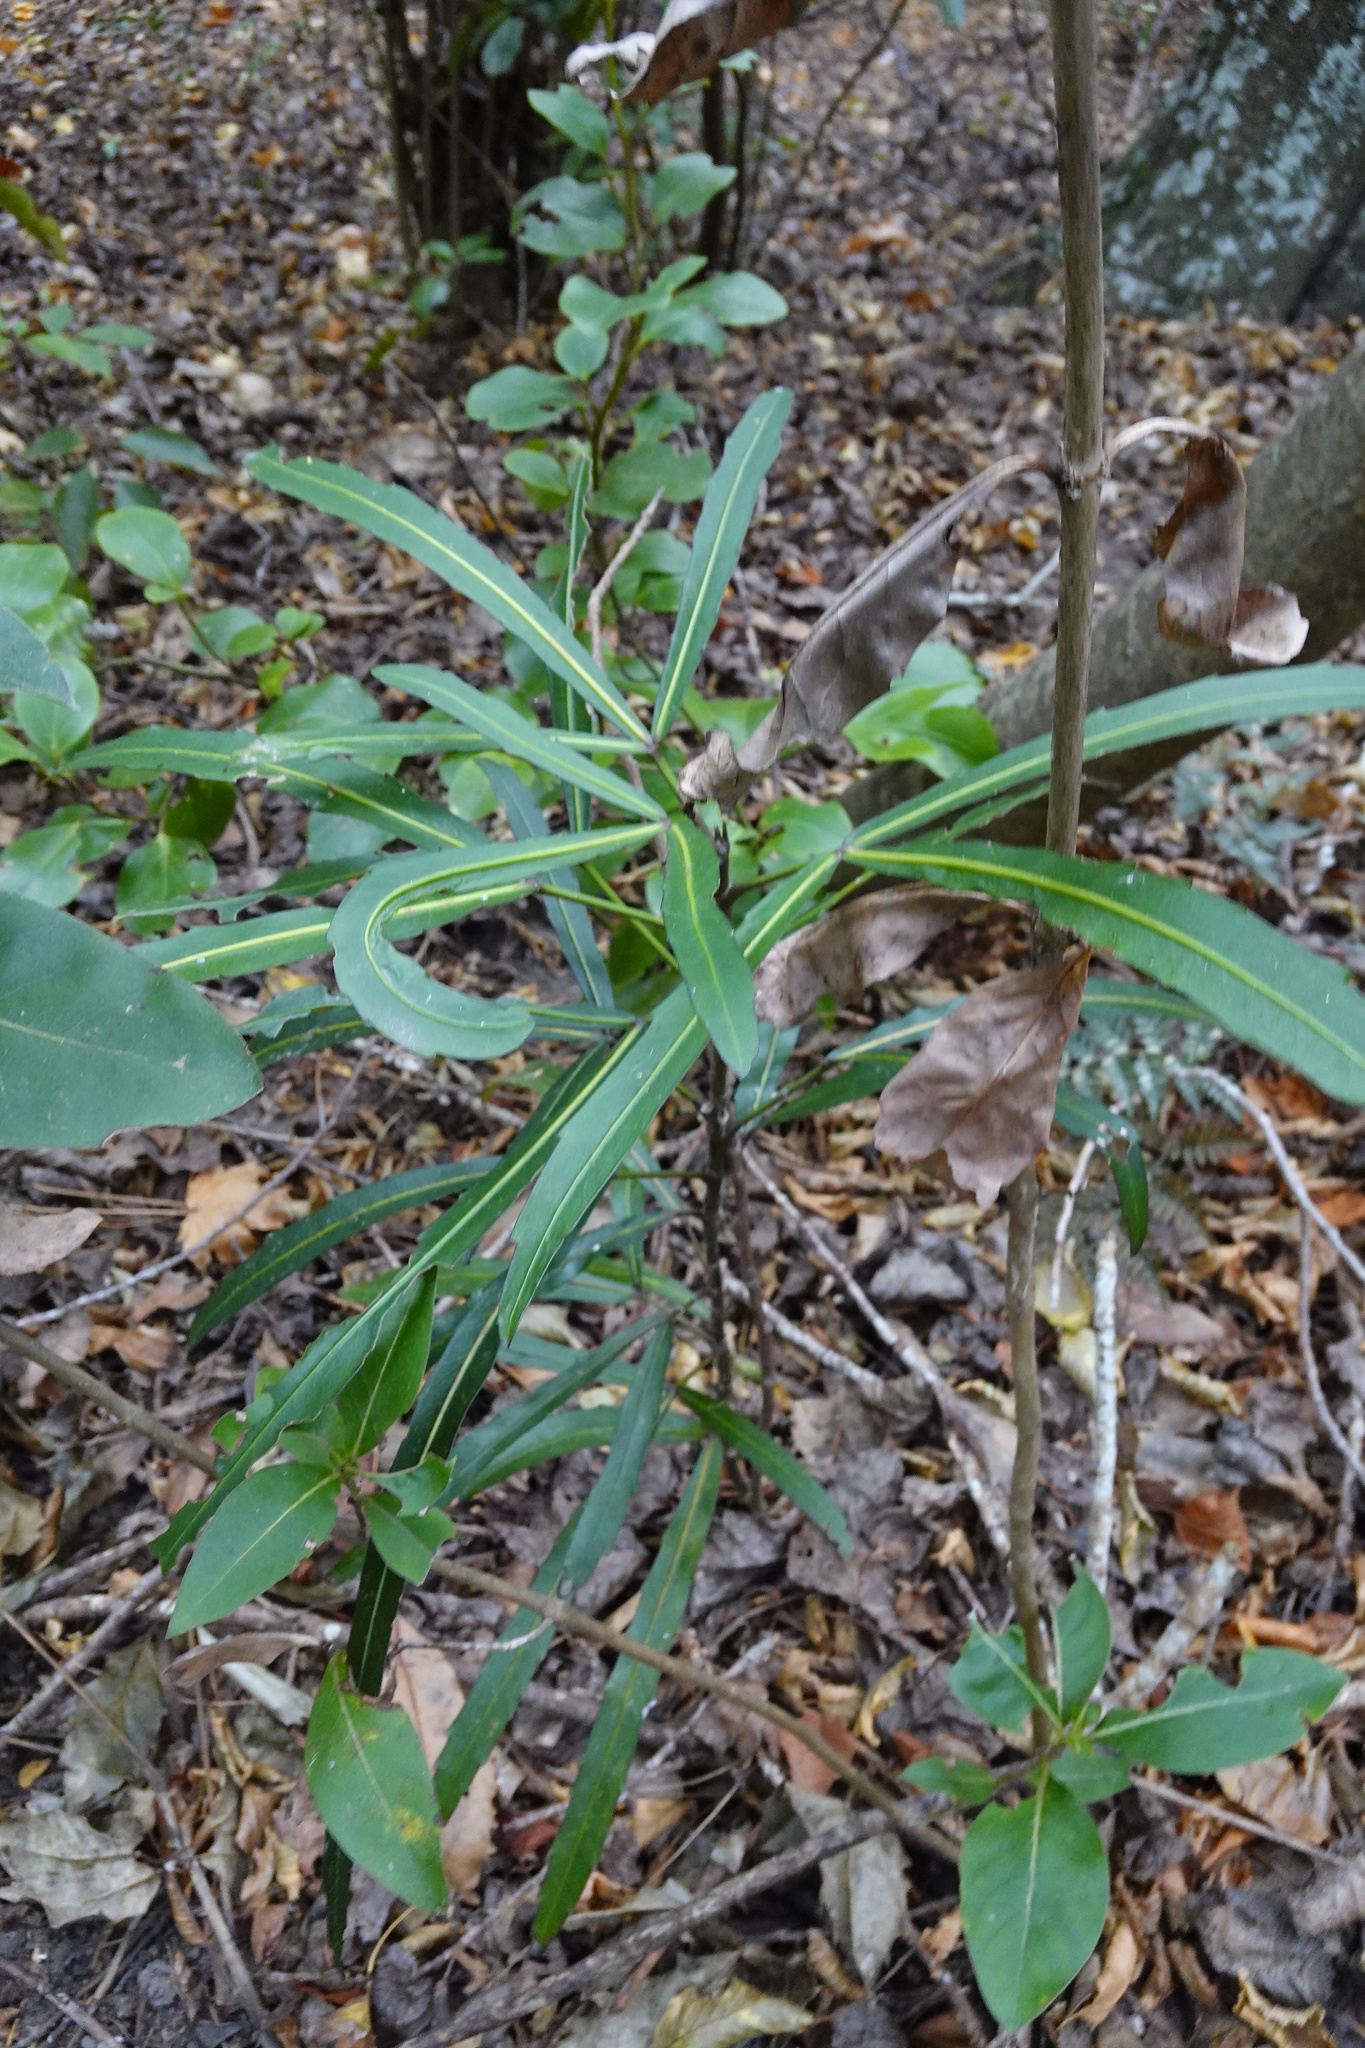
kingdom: Plantae
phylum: Tracheophyta
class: Magnoliopsida
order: Apiales
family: Araliaceae
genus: Pseudopanax
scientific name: Pseudopanax
